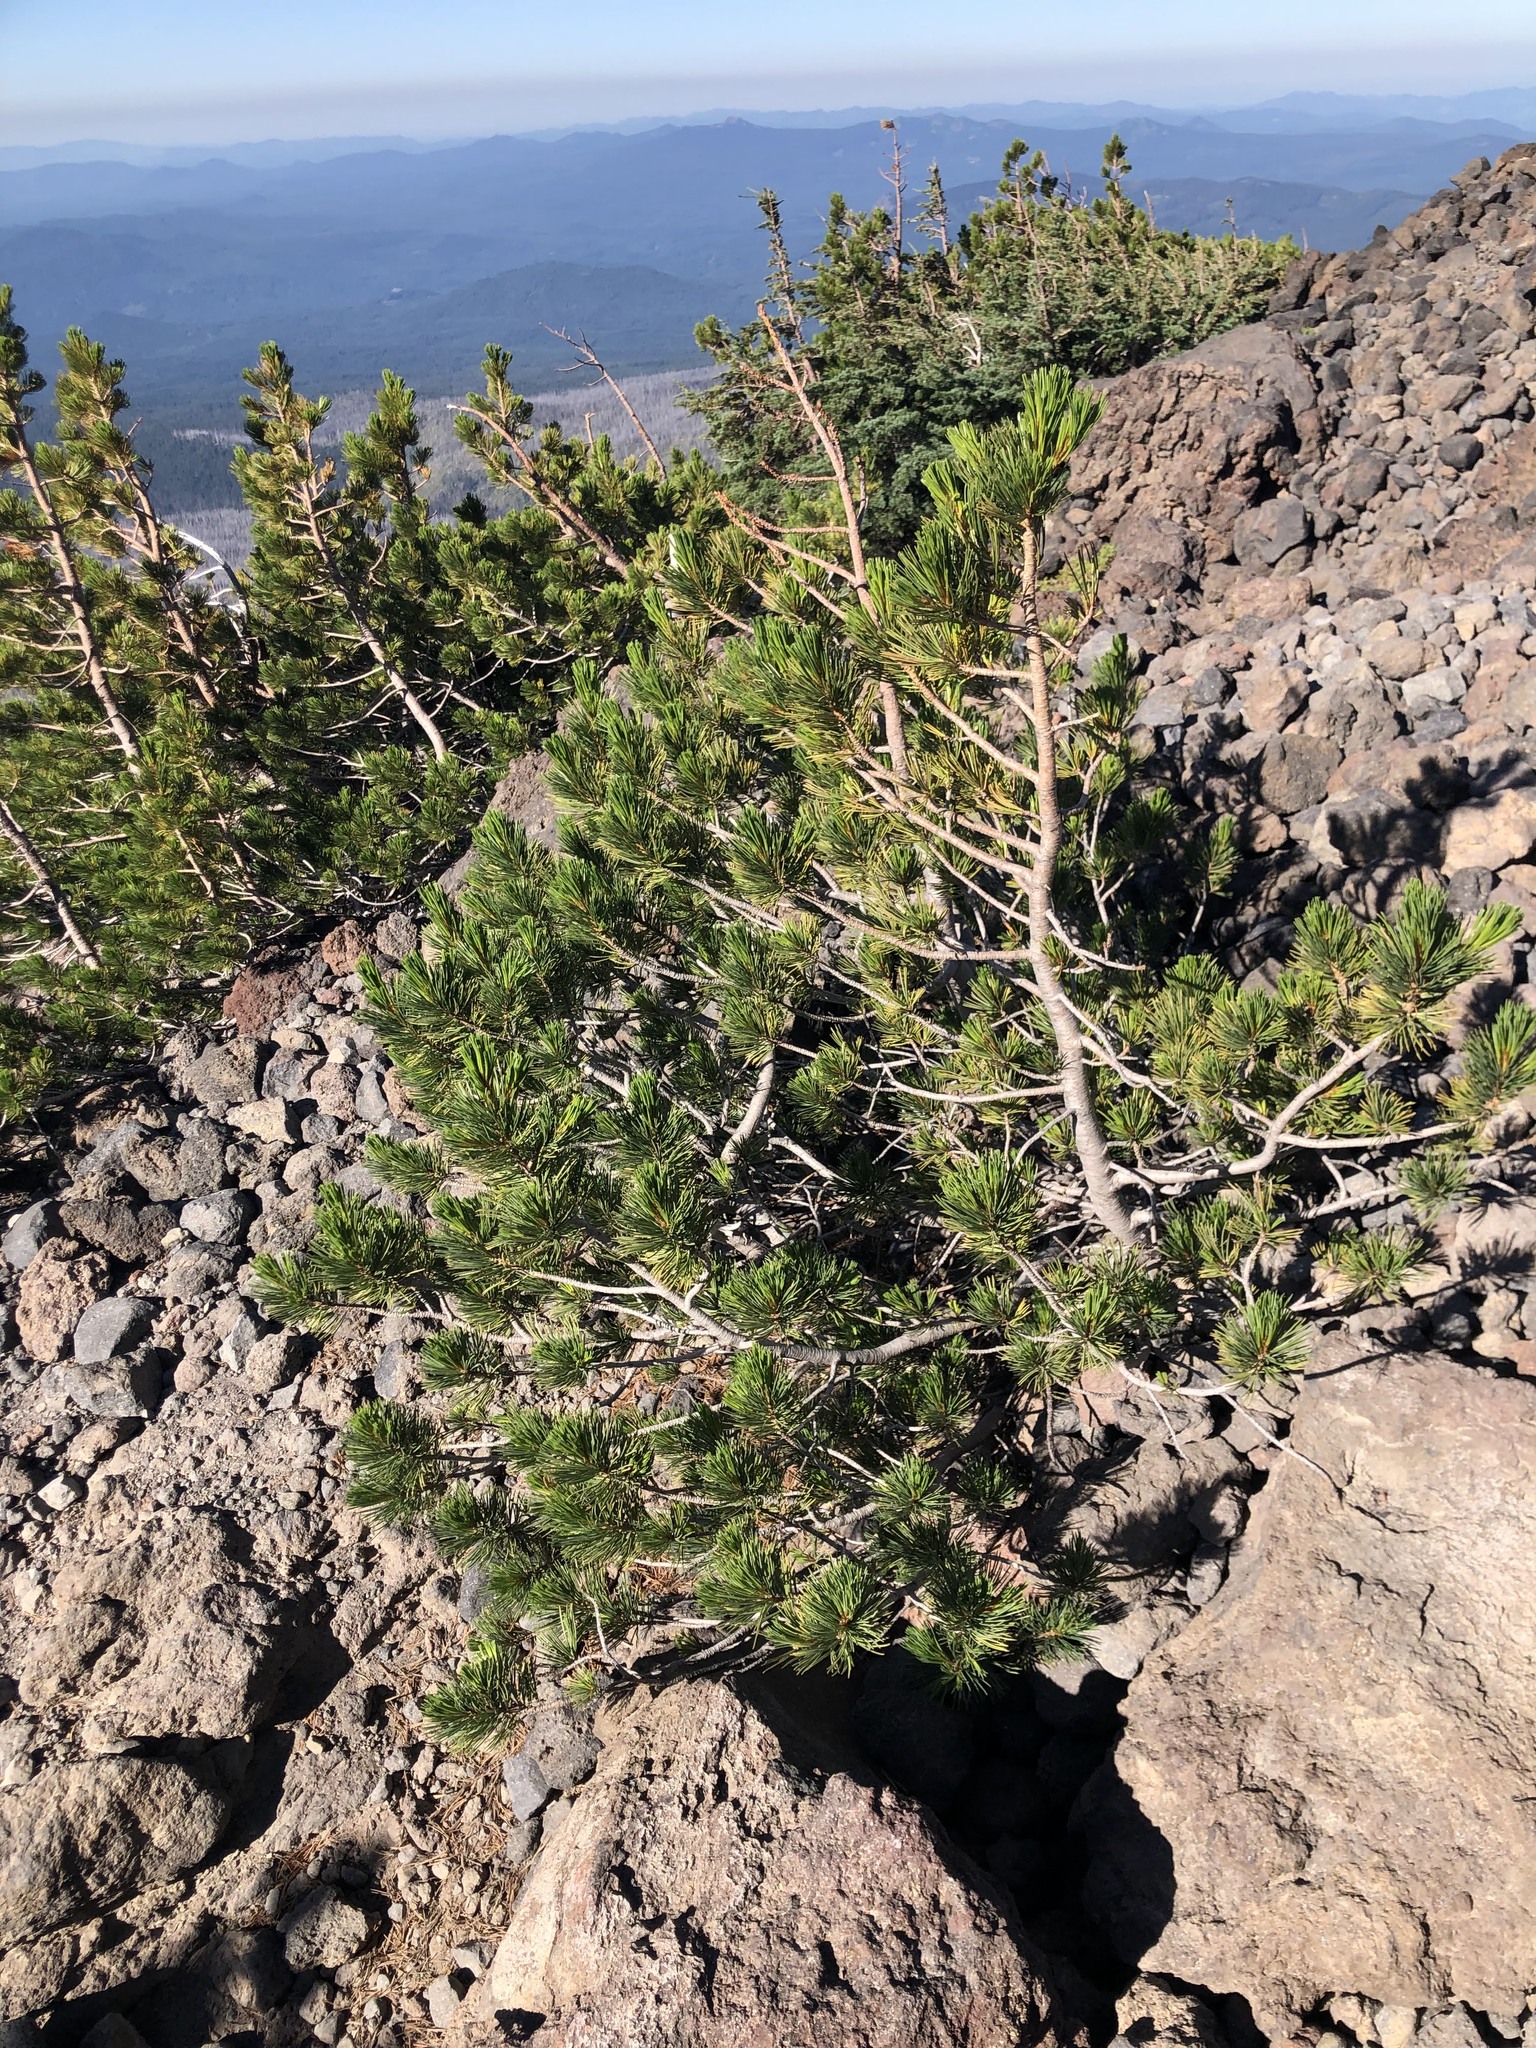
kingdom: Plantae
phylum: Tracheophyta
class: Pinopsida
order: Pinales
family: Pinaceae
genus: Pinus
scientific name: Pinus albicaulis
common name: Whitebark pine
